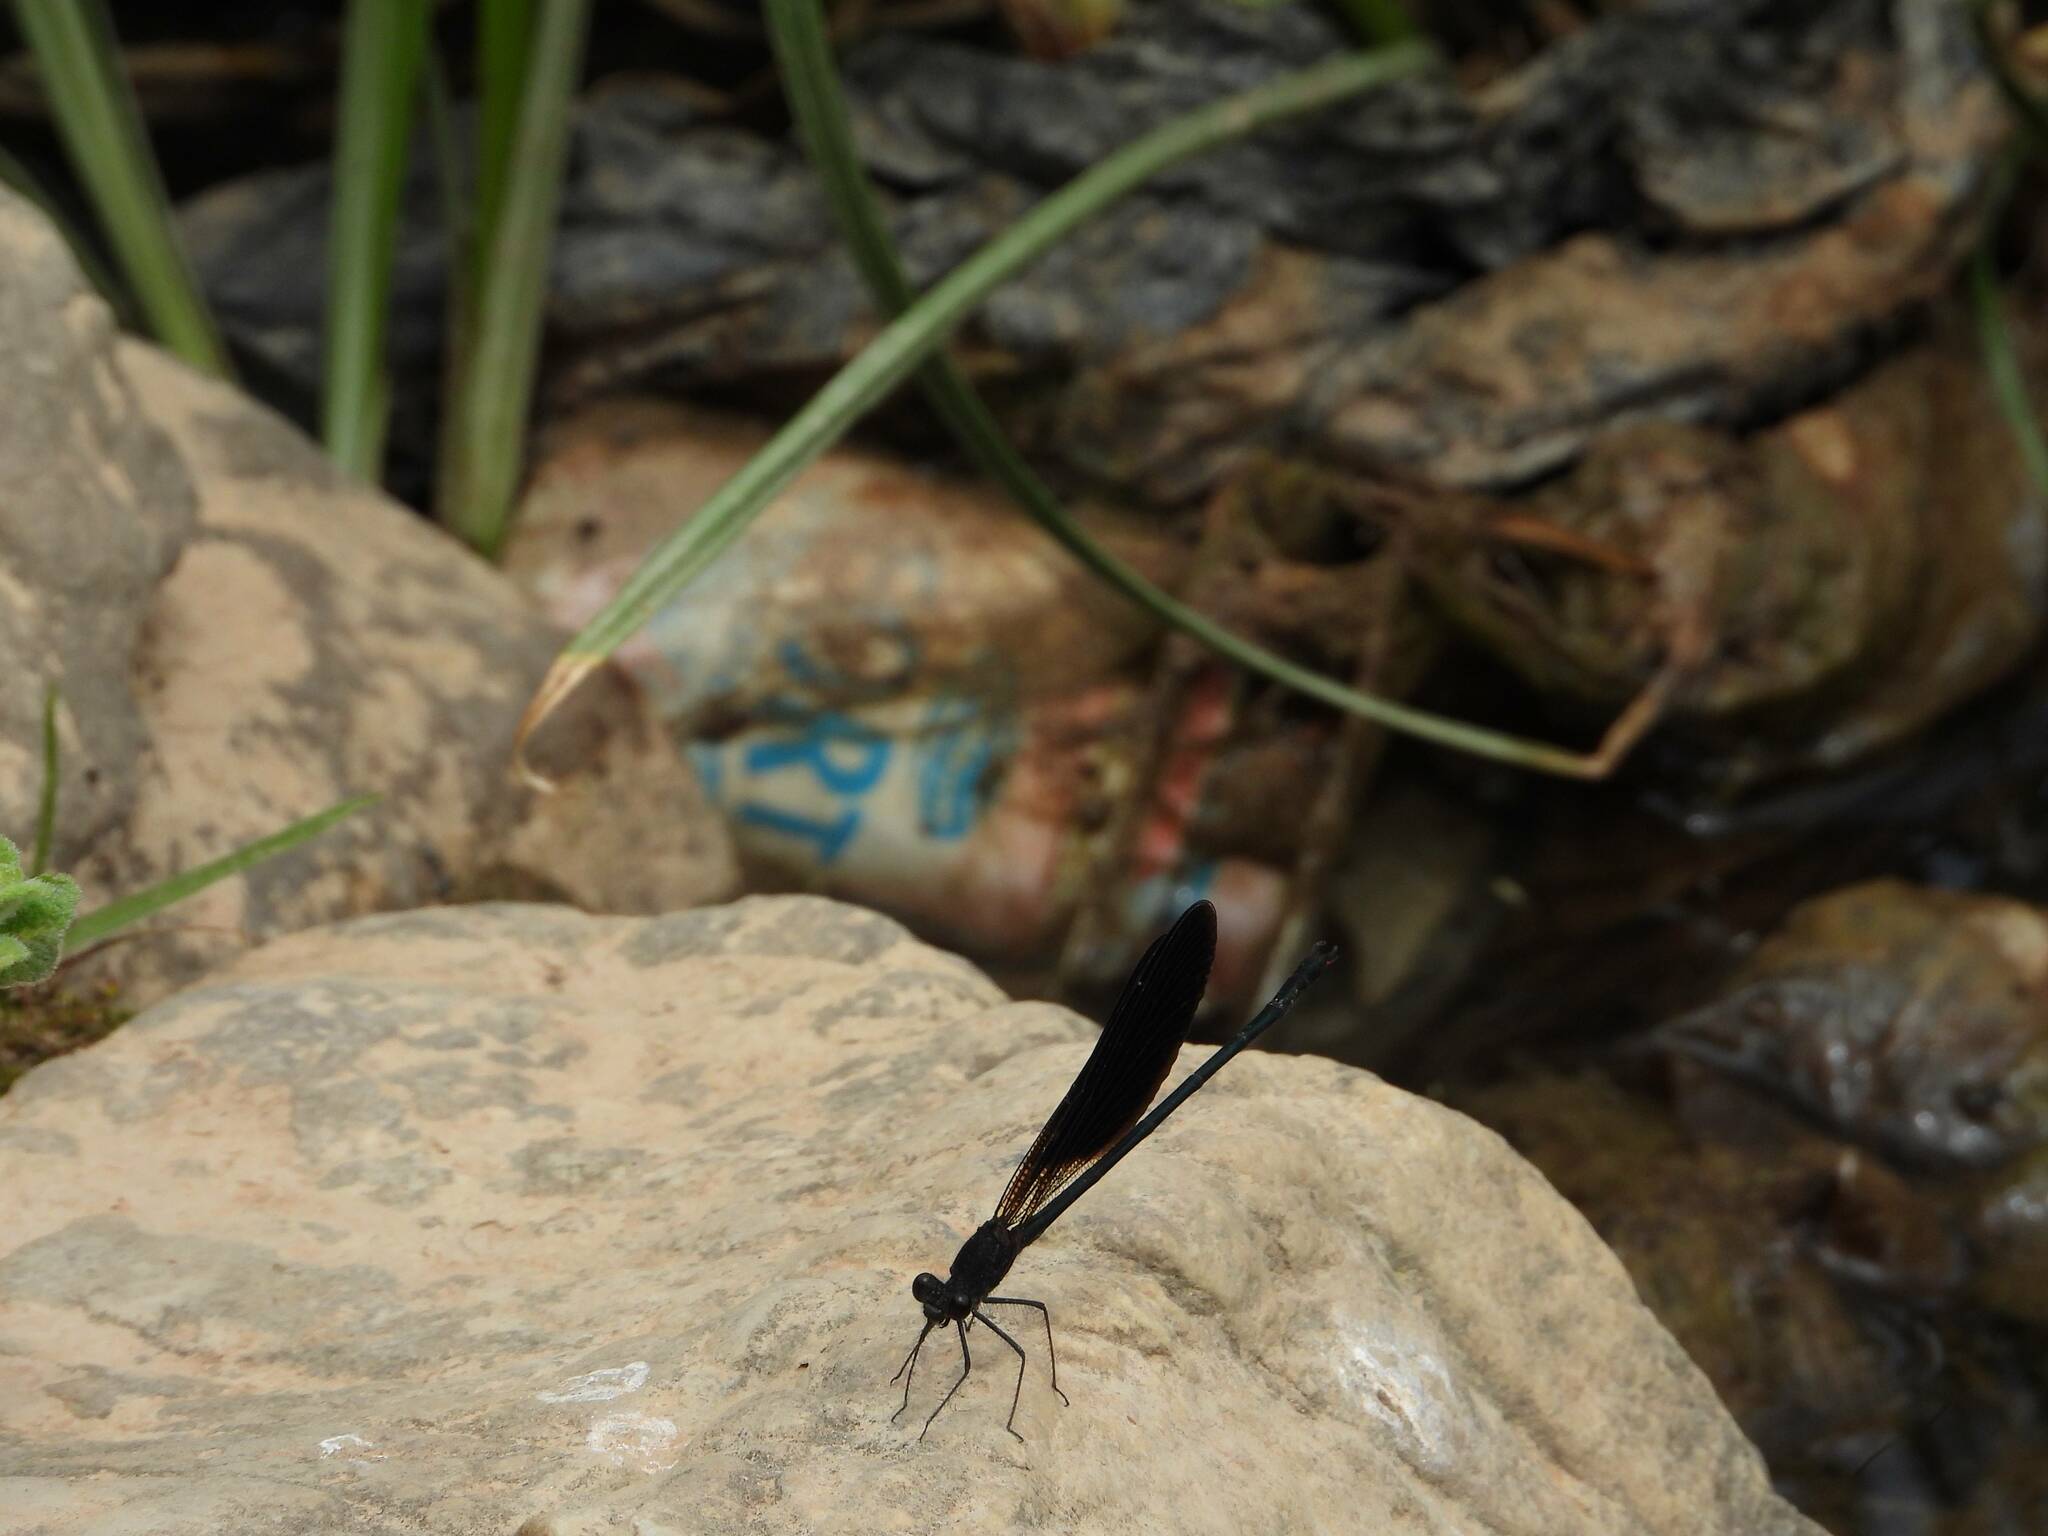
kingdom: Animalia
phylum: Arthropoda
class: Insecta
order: Odonata
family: Calopterygidae
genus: Calopteryx
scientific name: Calopteryx haemorrhoidalis
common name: Copper demoiselle
